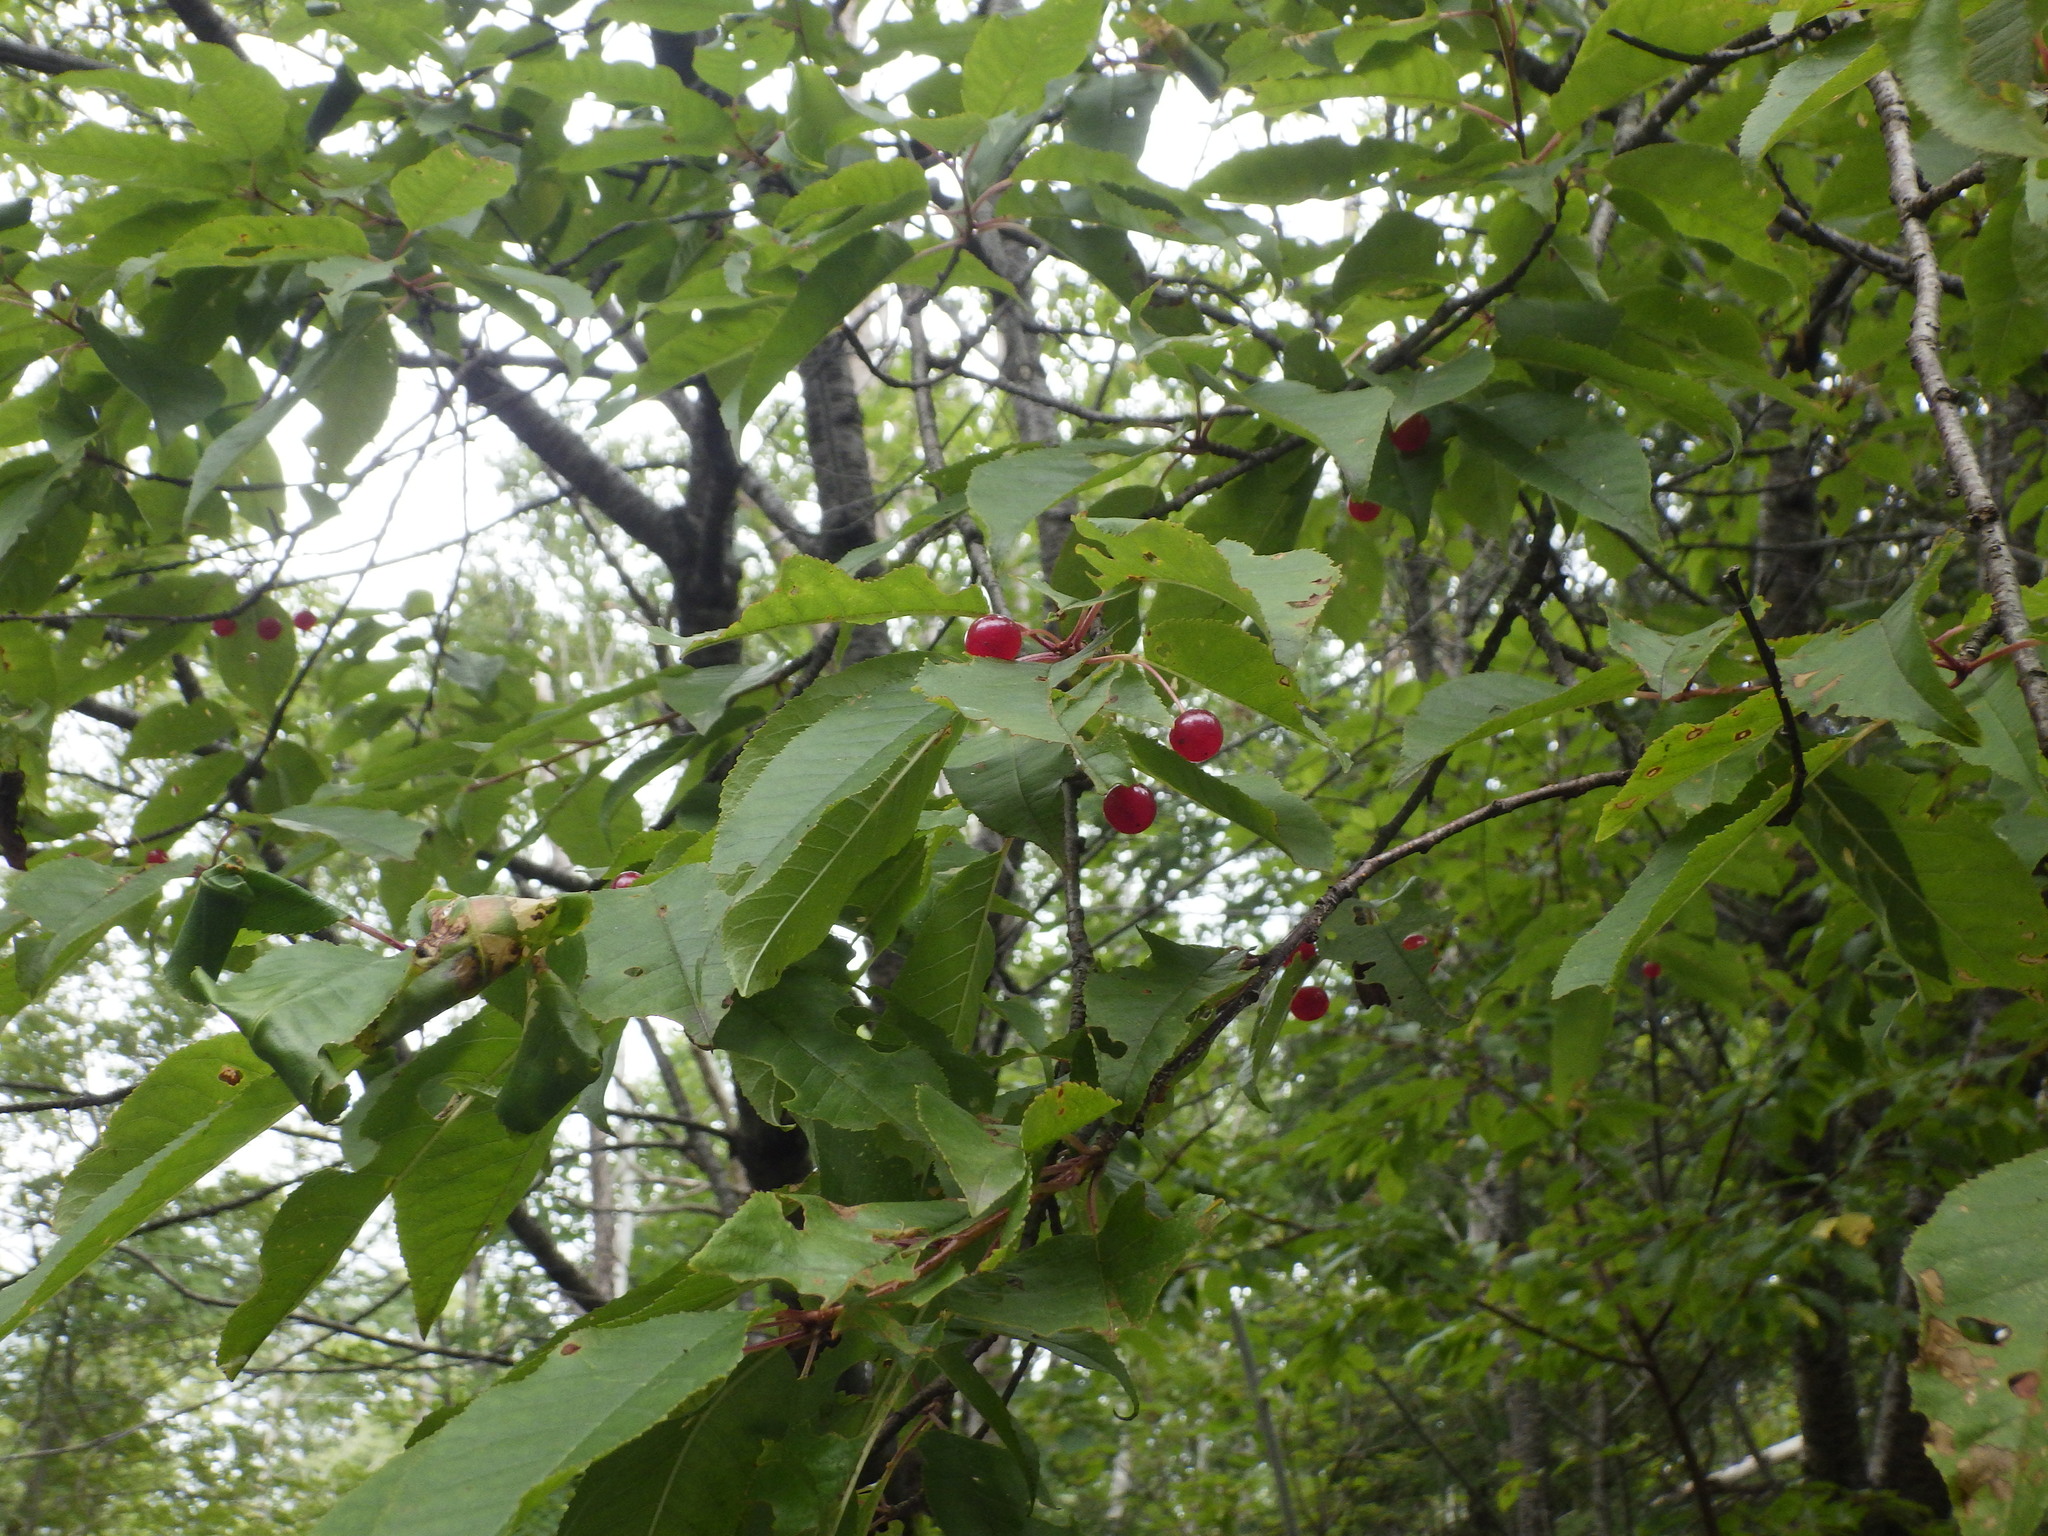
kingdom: Plantae
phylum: Tracheophyta
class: Magnoliopsida
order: Rosales
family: Rosaceae
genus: Prunus
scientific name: Prunus pensylvanica
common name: Pin cherry
